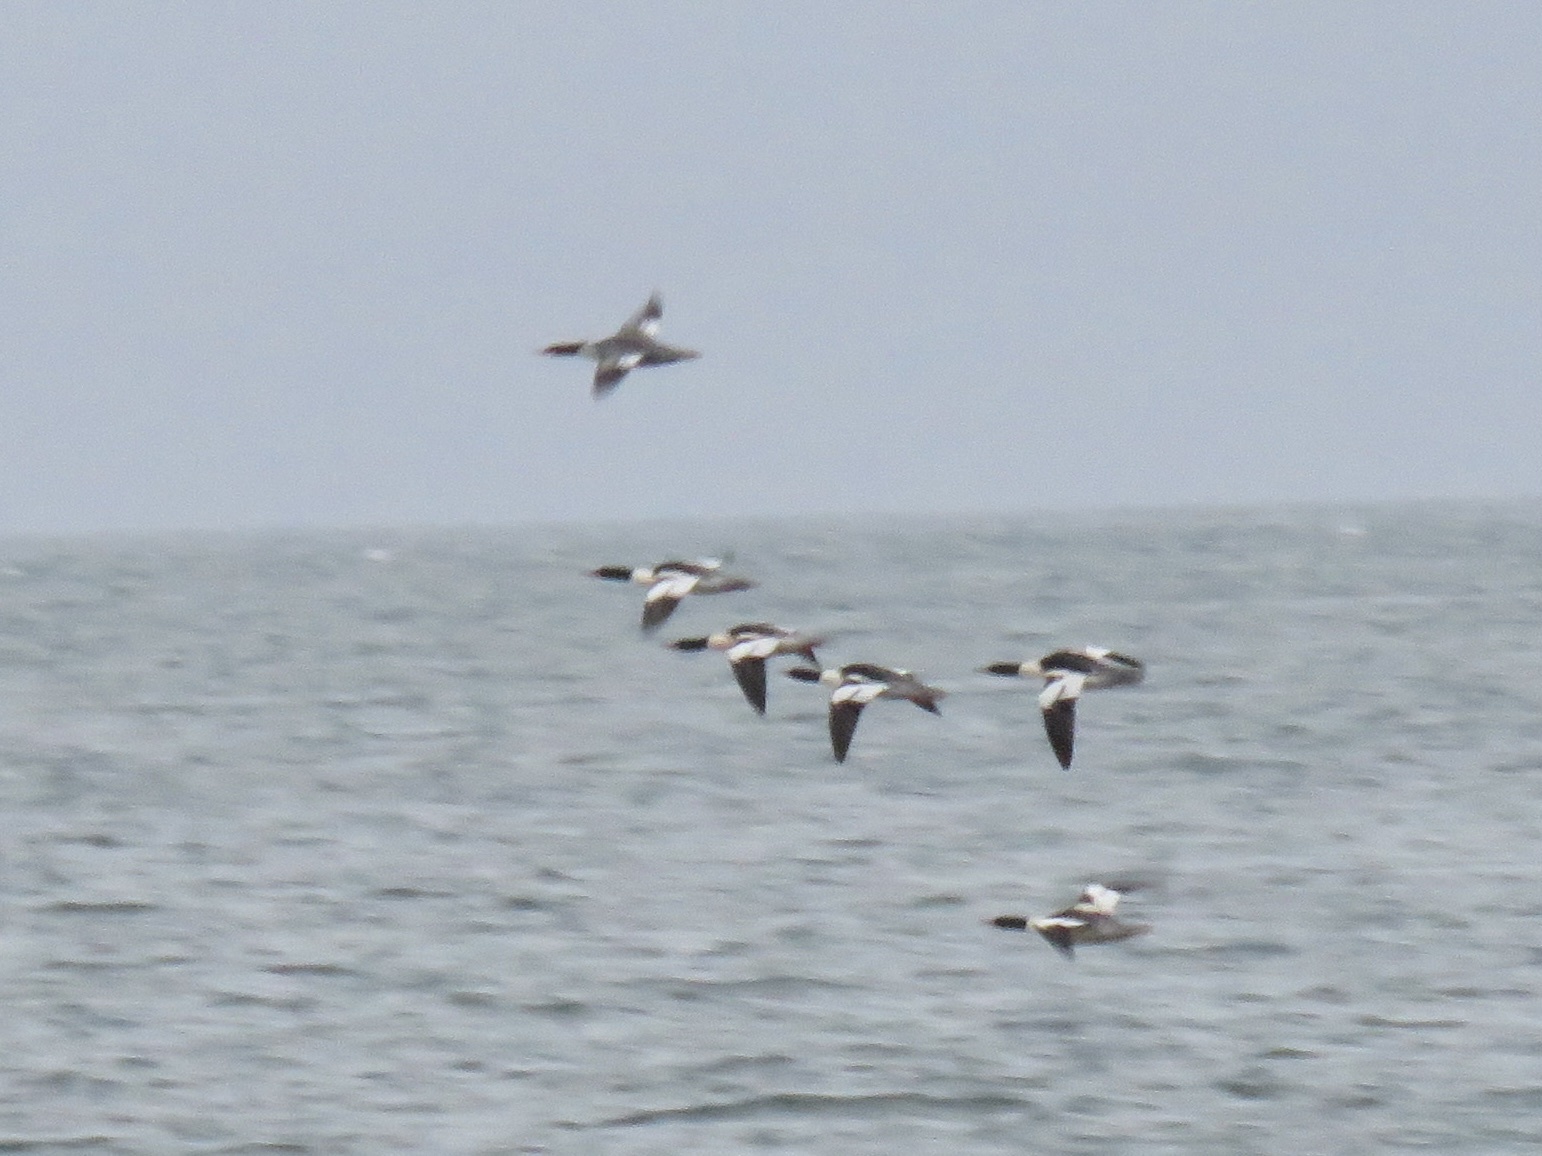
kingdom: Animalia
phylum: Chordata
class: Aves
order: Anseriformes
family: Anatidae
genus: Mergus
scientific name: Mergus merganser
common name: Common merganser
